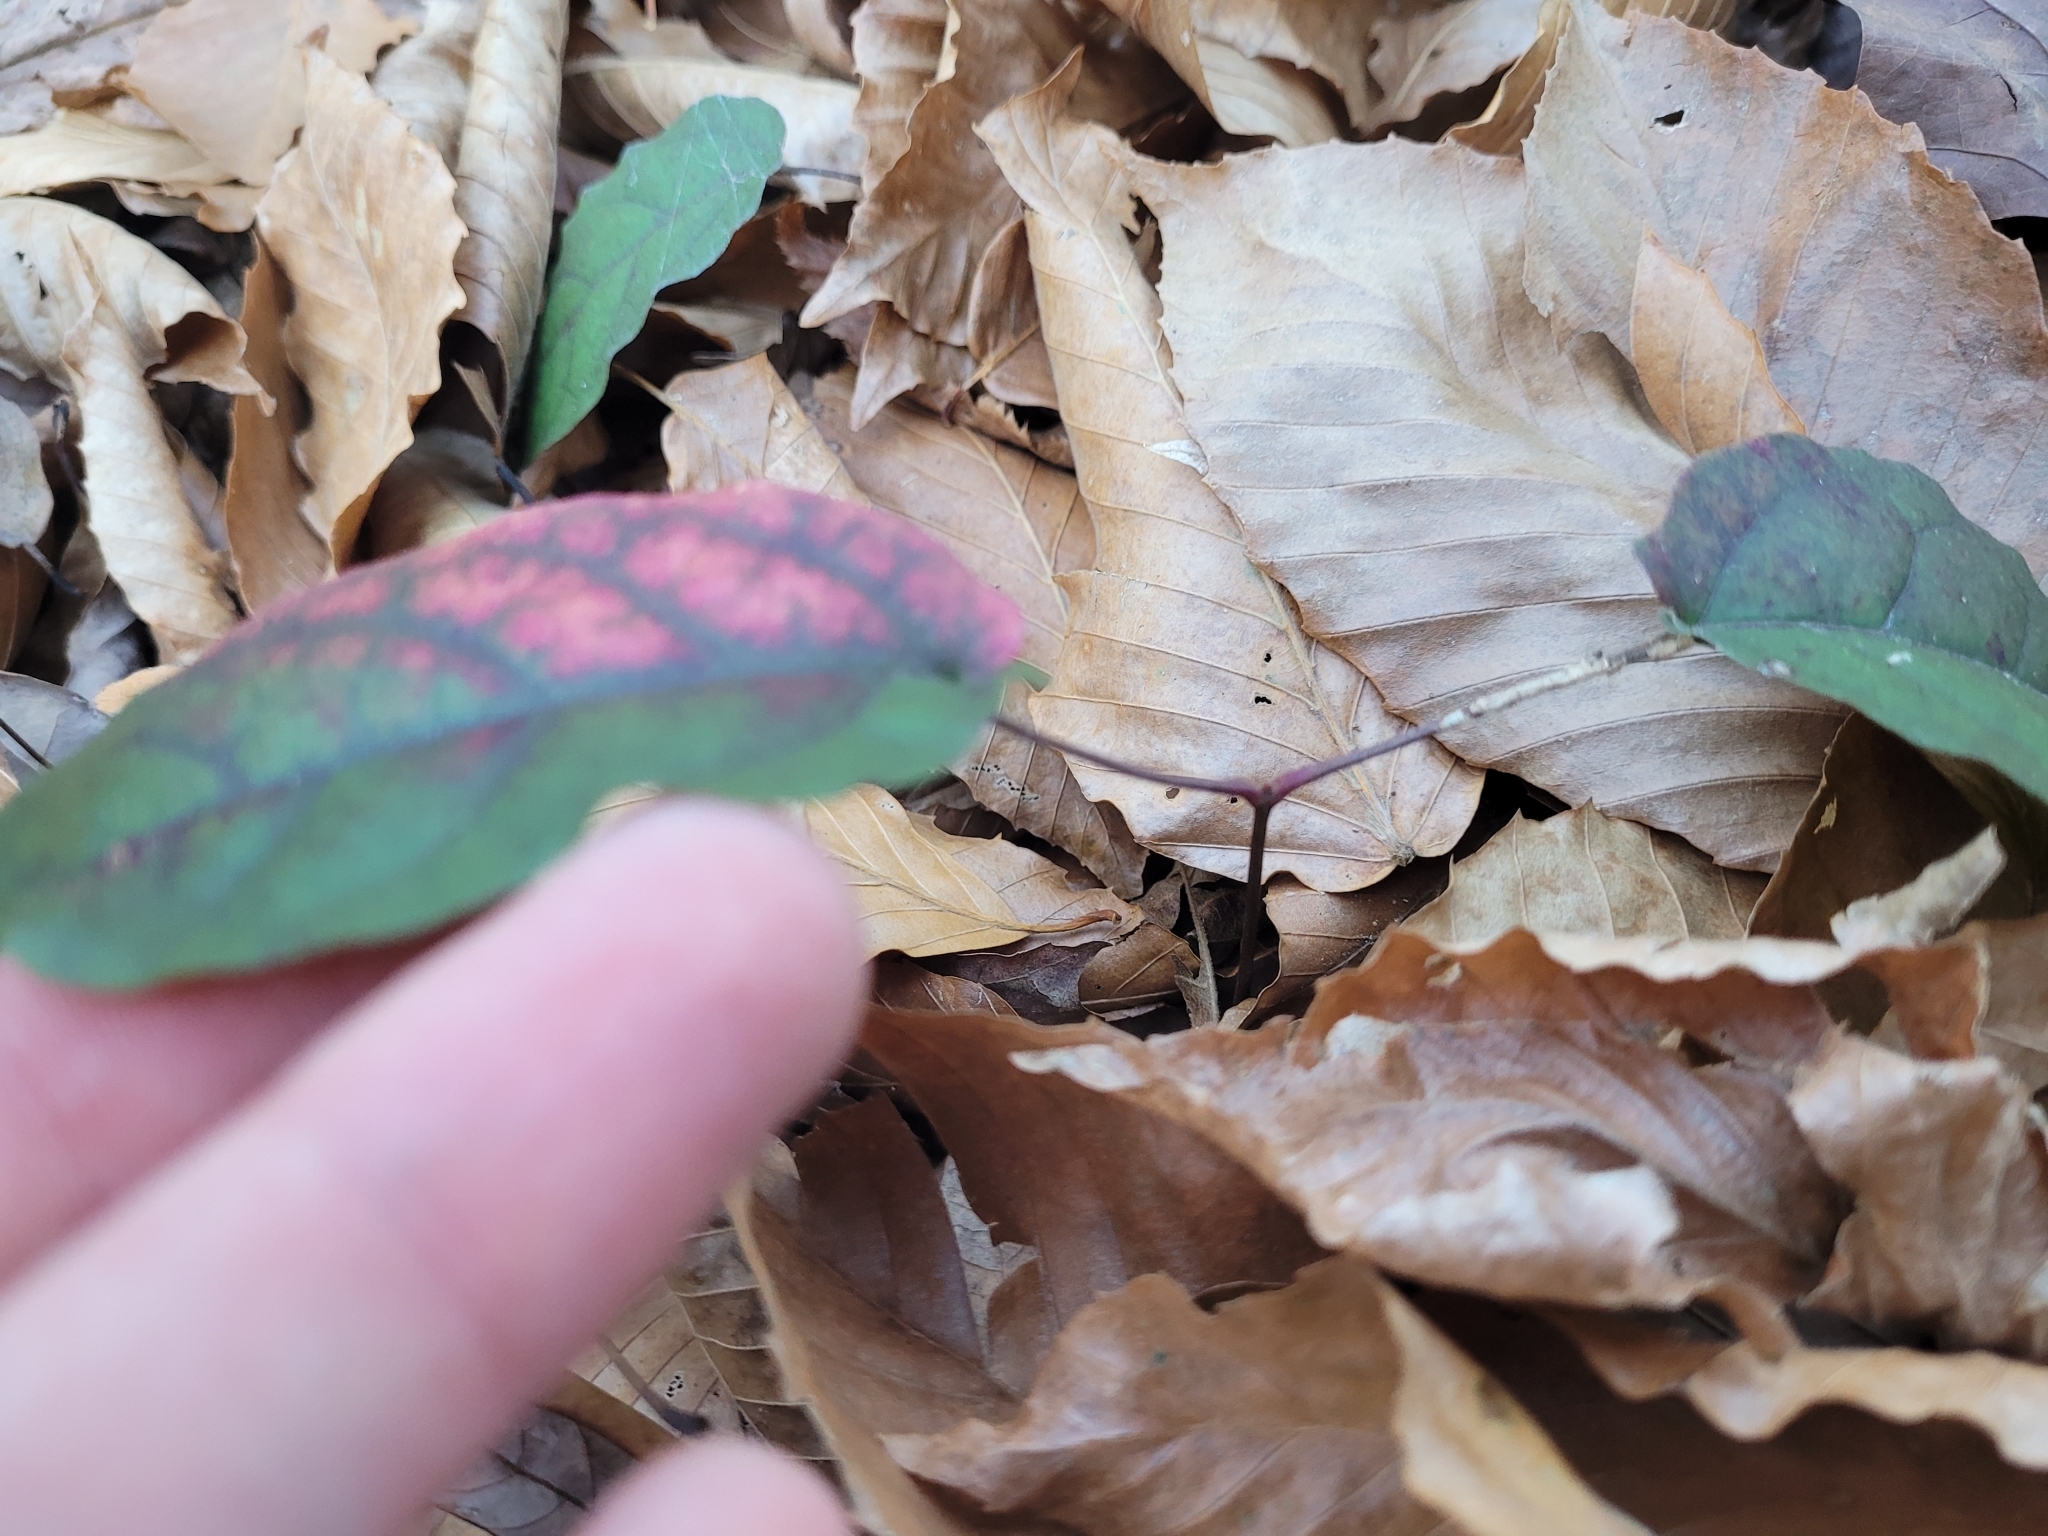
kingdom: Plantae
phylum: Tracheophyta
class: Magnoliopsida
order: Lamiales
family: Bignoniaceae
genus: Bignonia
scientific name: Bignonia capreolata
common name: Crossvine
